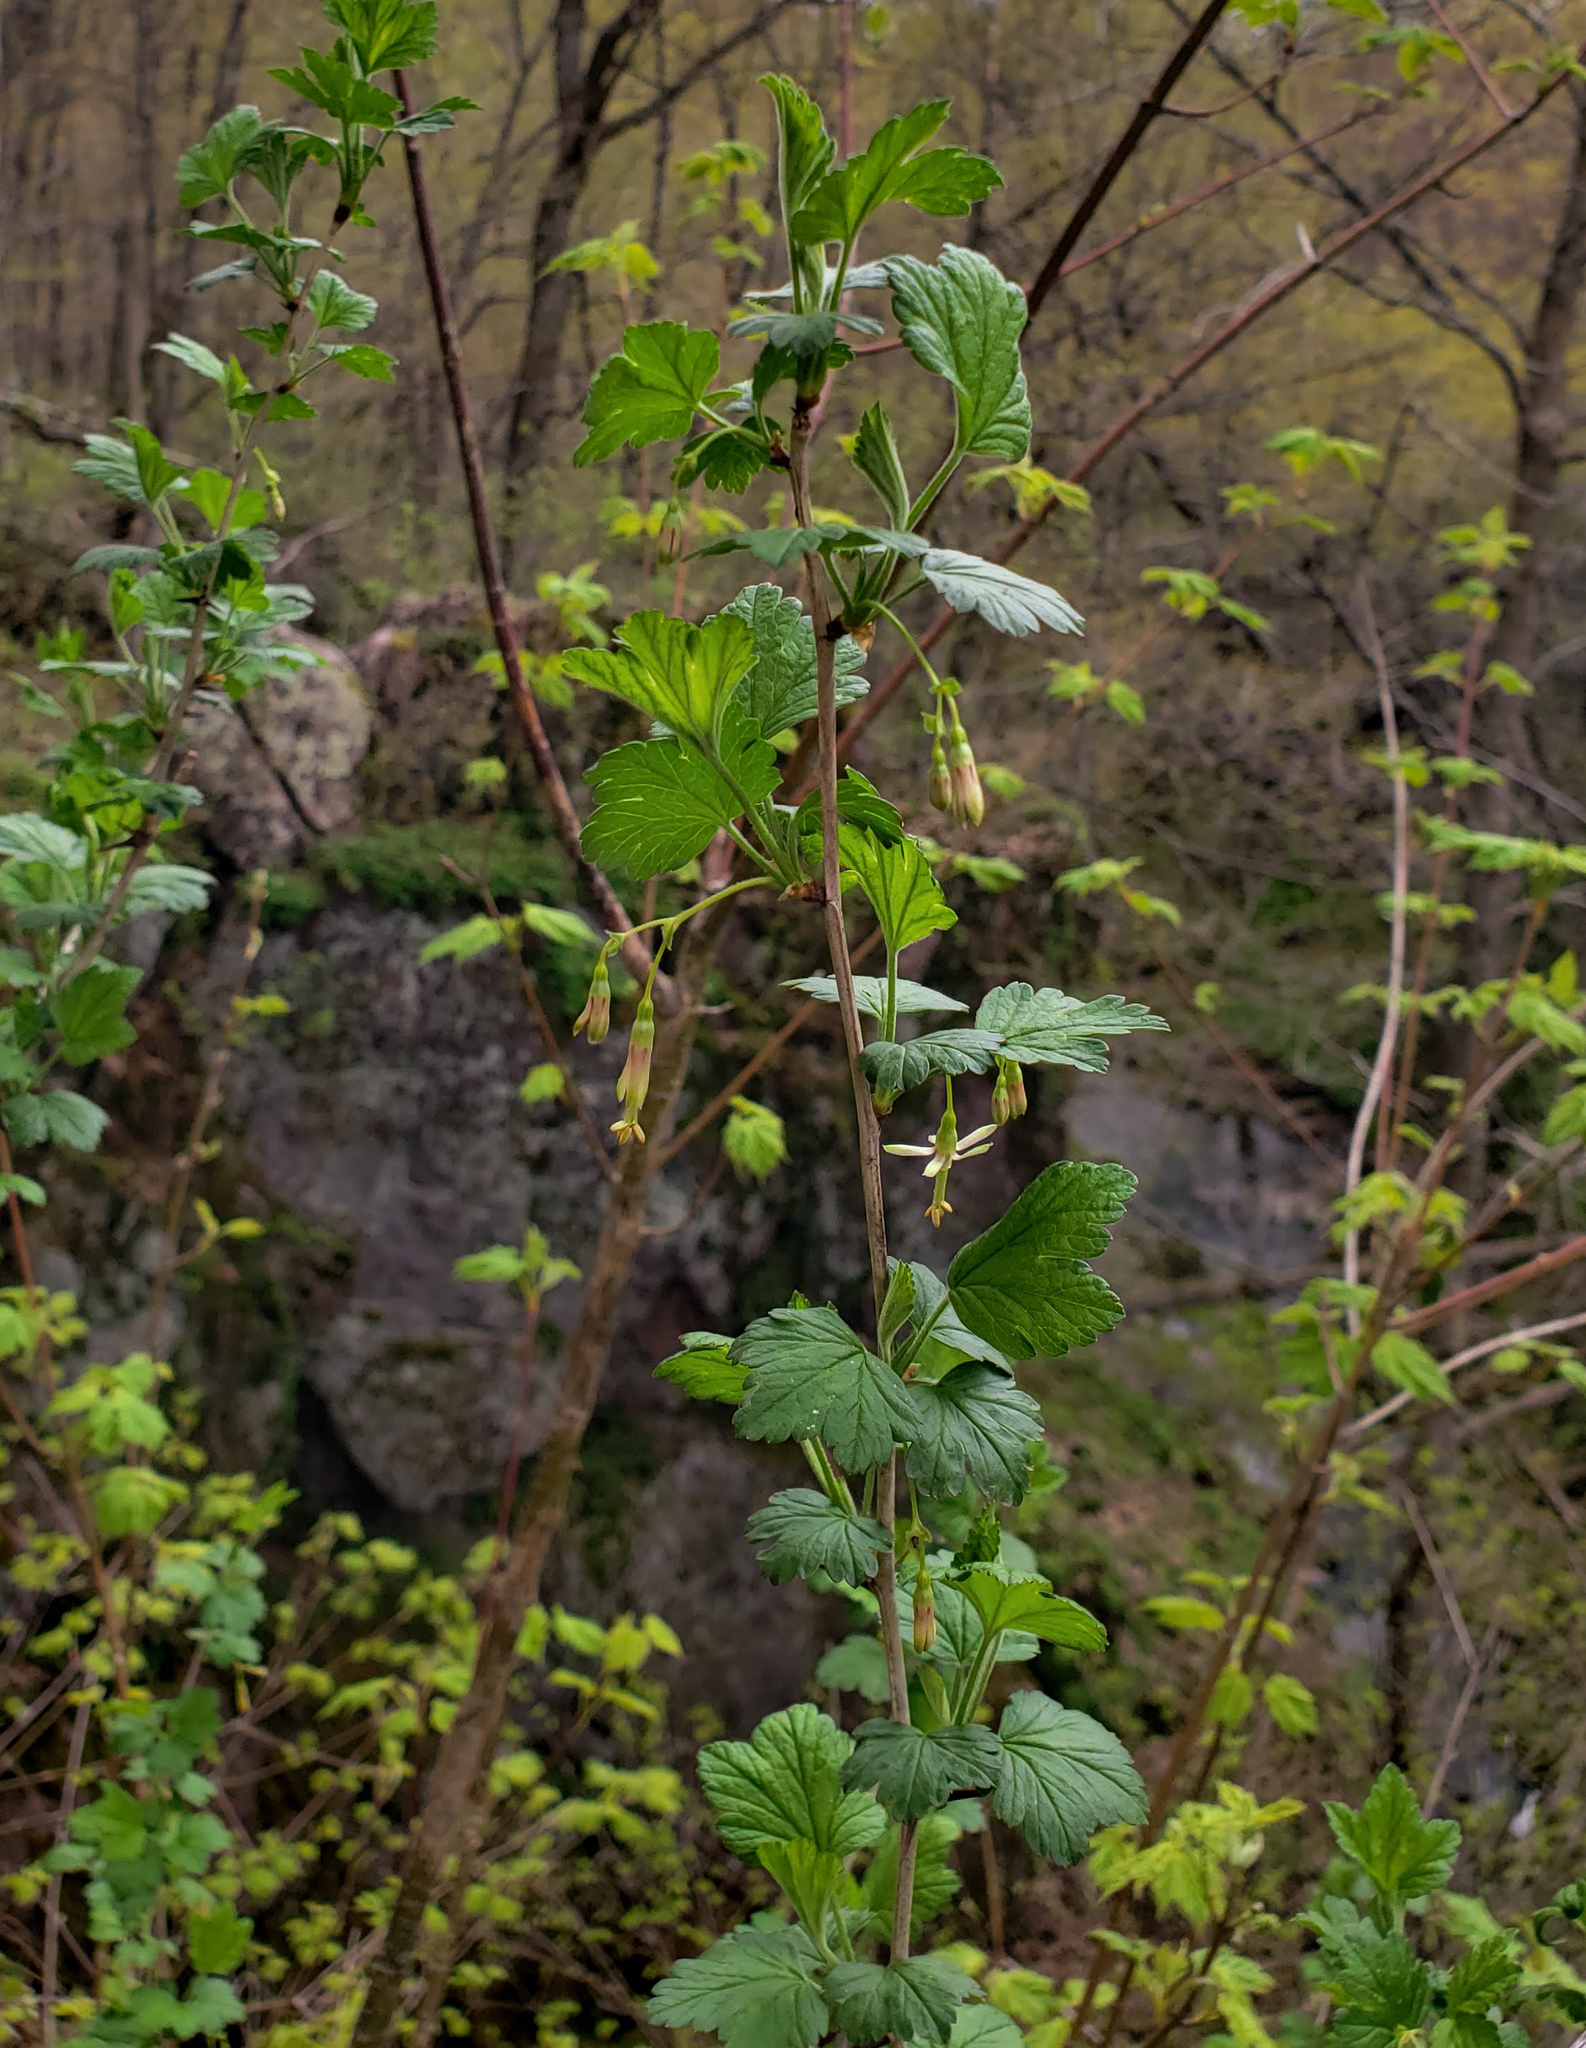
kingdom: Plantae
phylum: Tracheophyta
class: Magnoliopsida
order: Saxifragales
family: Grossulariaceae
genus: Ribes
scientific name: Ribes missouriense
